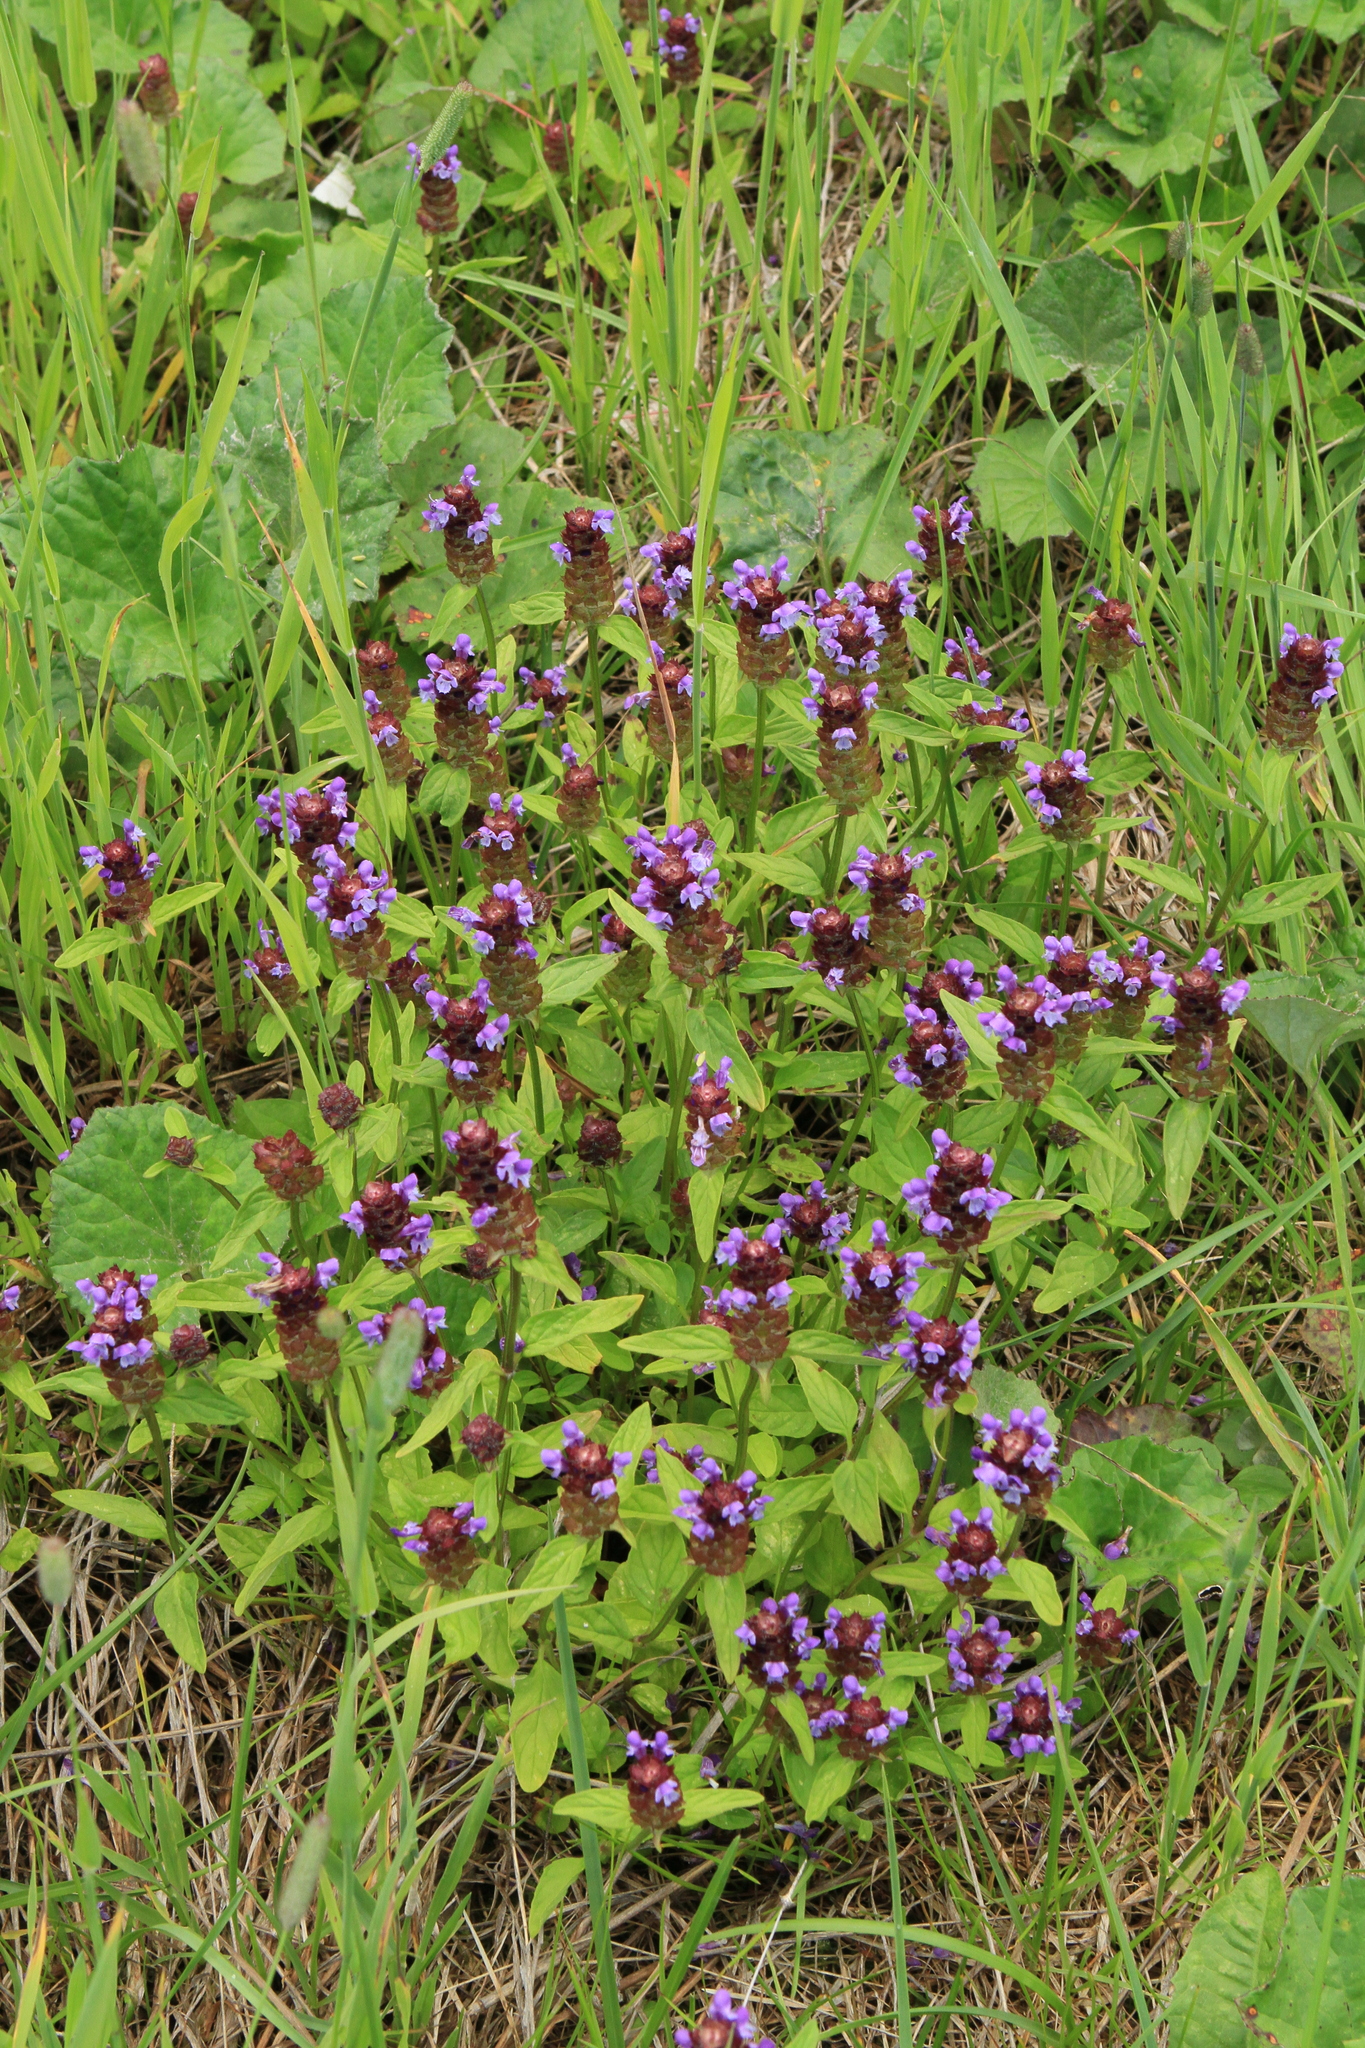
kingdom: Plantae
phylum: Tracheophyta
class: Magnoliopsida
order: Lamiales
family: Lamiaceae
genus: Prunella
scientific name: Prunella vulgaris
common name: Heal-all
